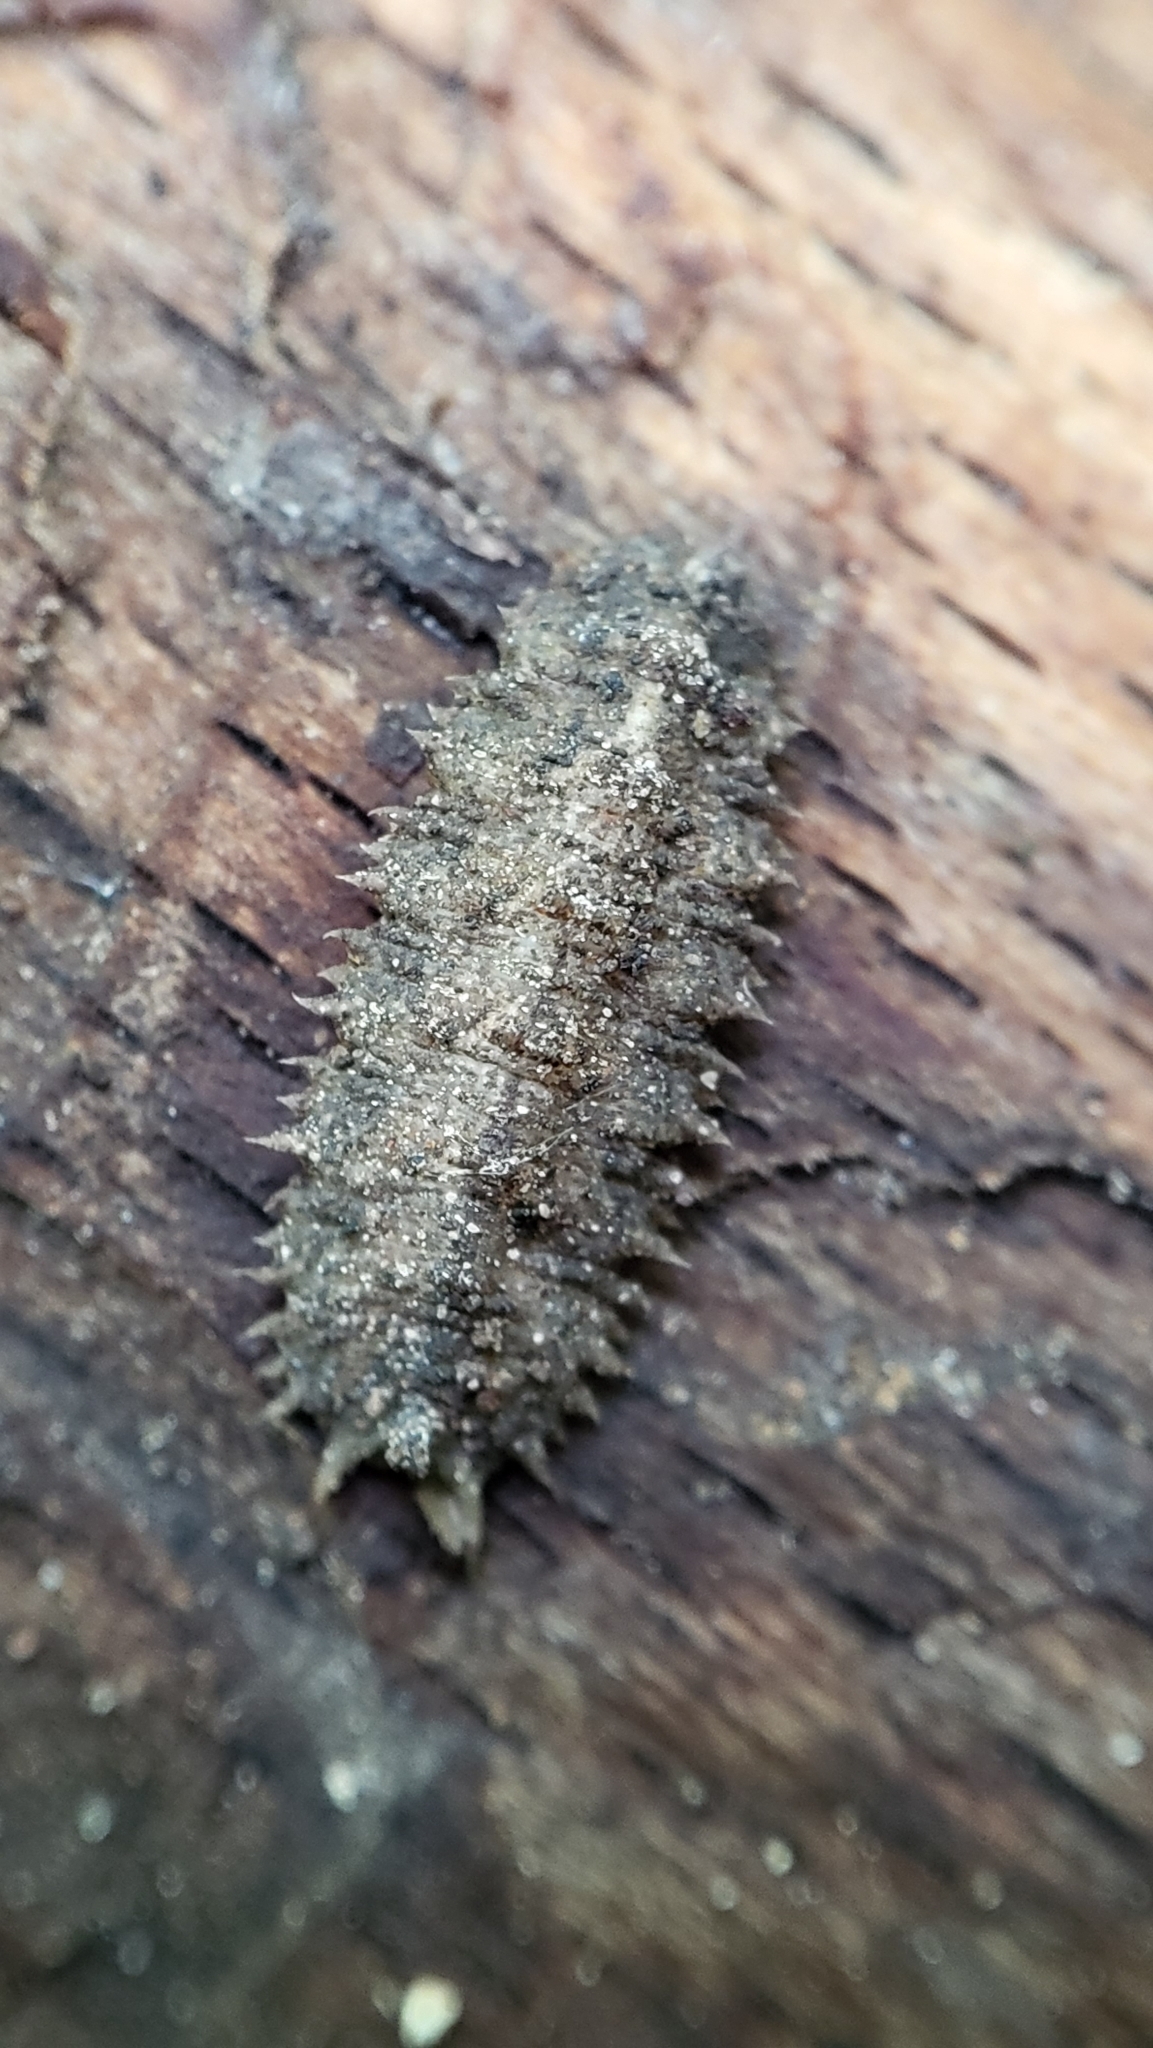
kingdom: Animalia
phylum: Arthropoda
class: Insecta
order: Diptera
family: Syrphidae
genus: Dasysyrphus
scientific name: Dasysyrphus
